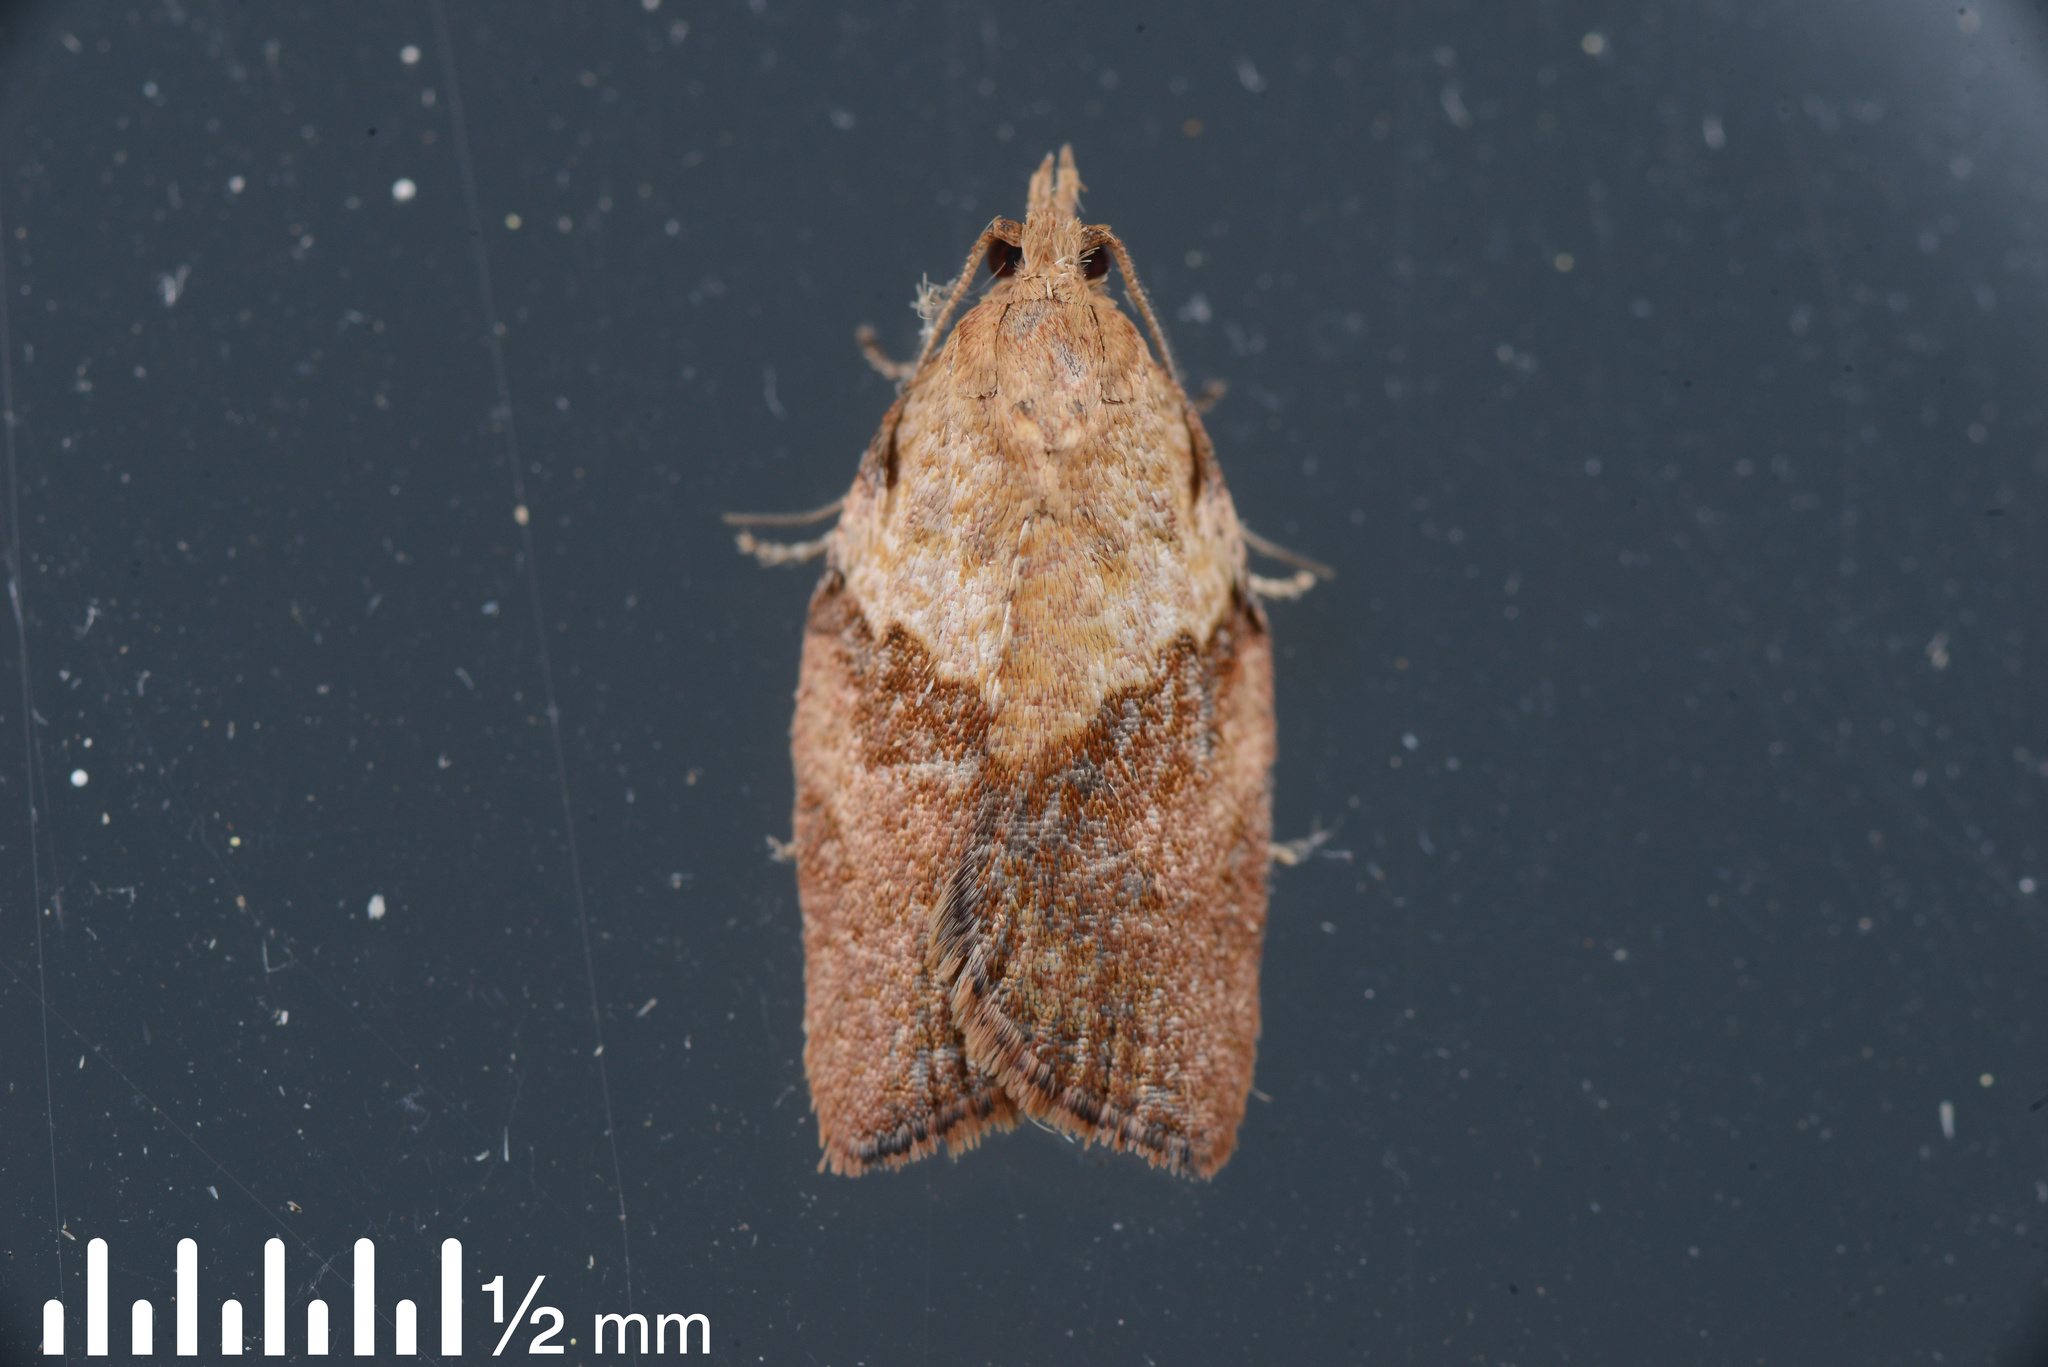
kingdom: Animalia
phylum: Arthropoda
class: Insecta
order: Lepidoptera
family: Tortricidae
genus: Epiphyas
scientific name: Epiphyas postvittana
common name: Light brown apple moth
